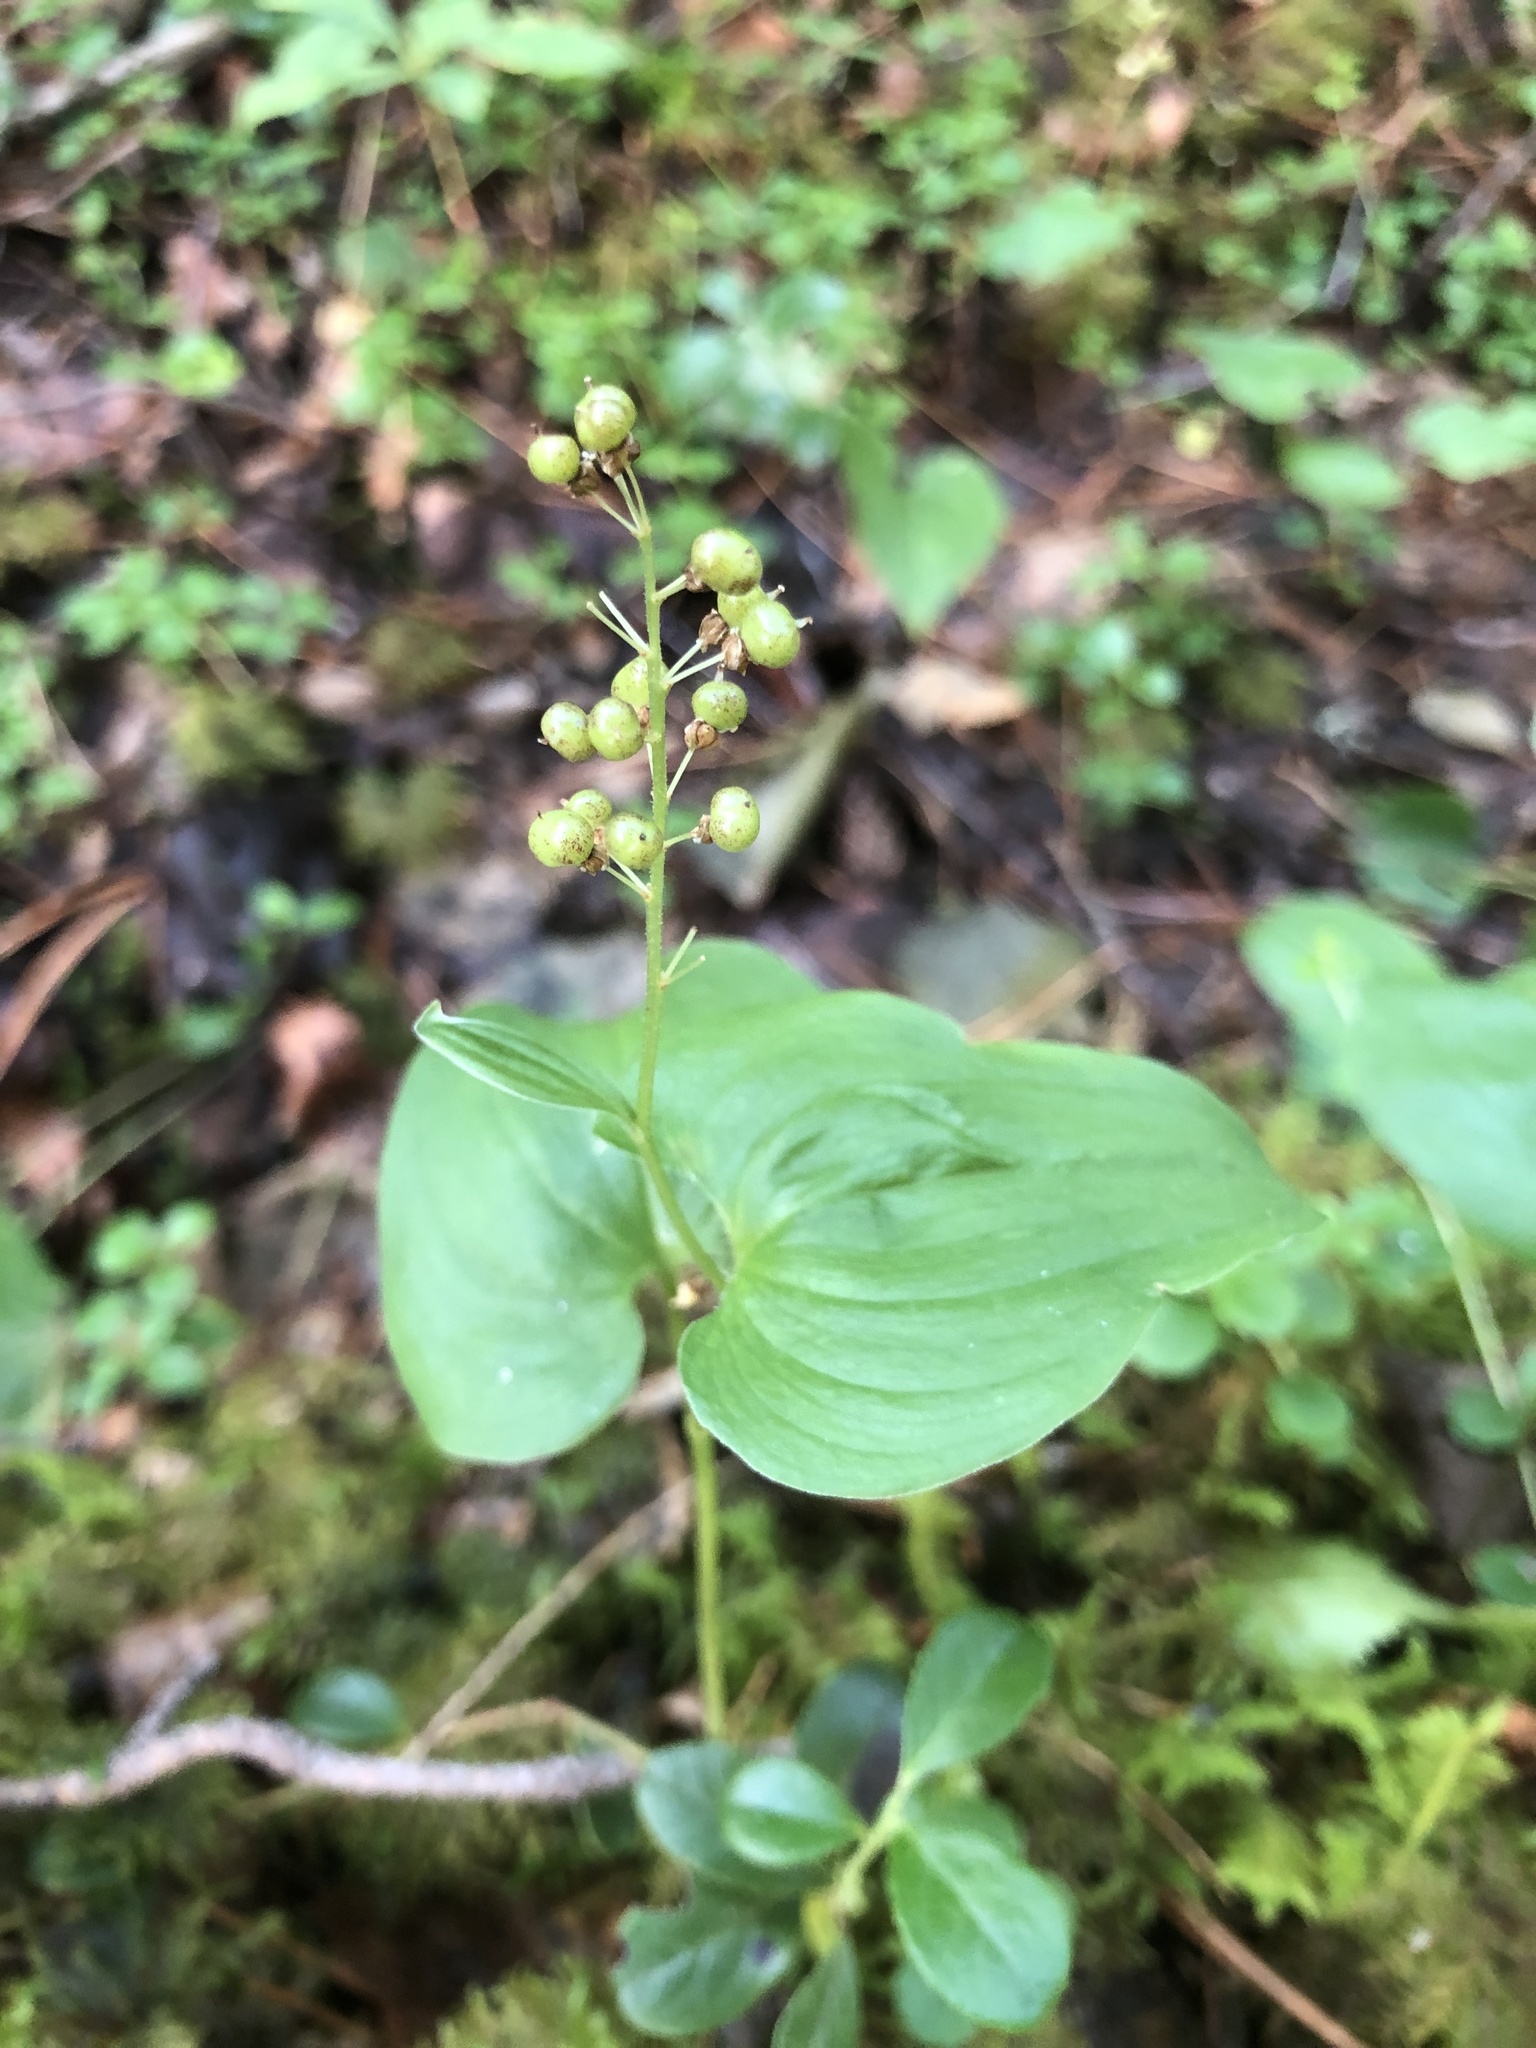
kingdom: Plantae
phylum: Tracheophyta
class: Liliopsida
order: Asparagales
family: Asparagaceae
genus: Maianthemum
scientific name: Maianthemum bifolium
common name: May lily
